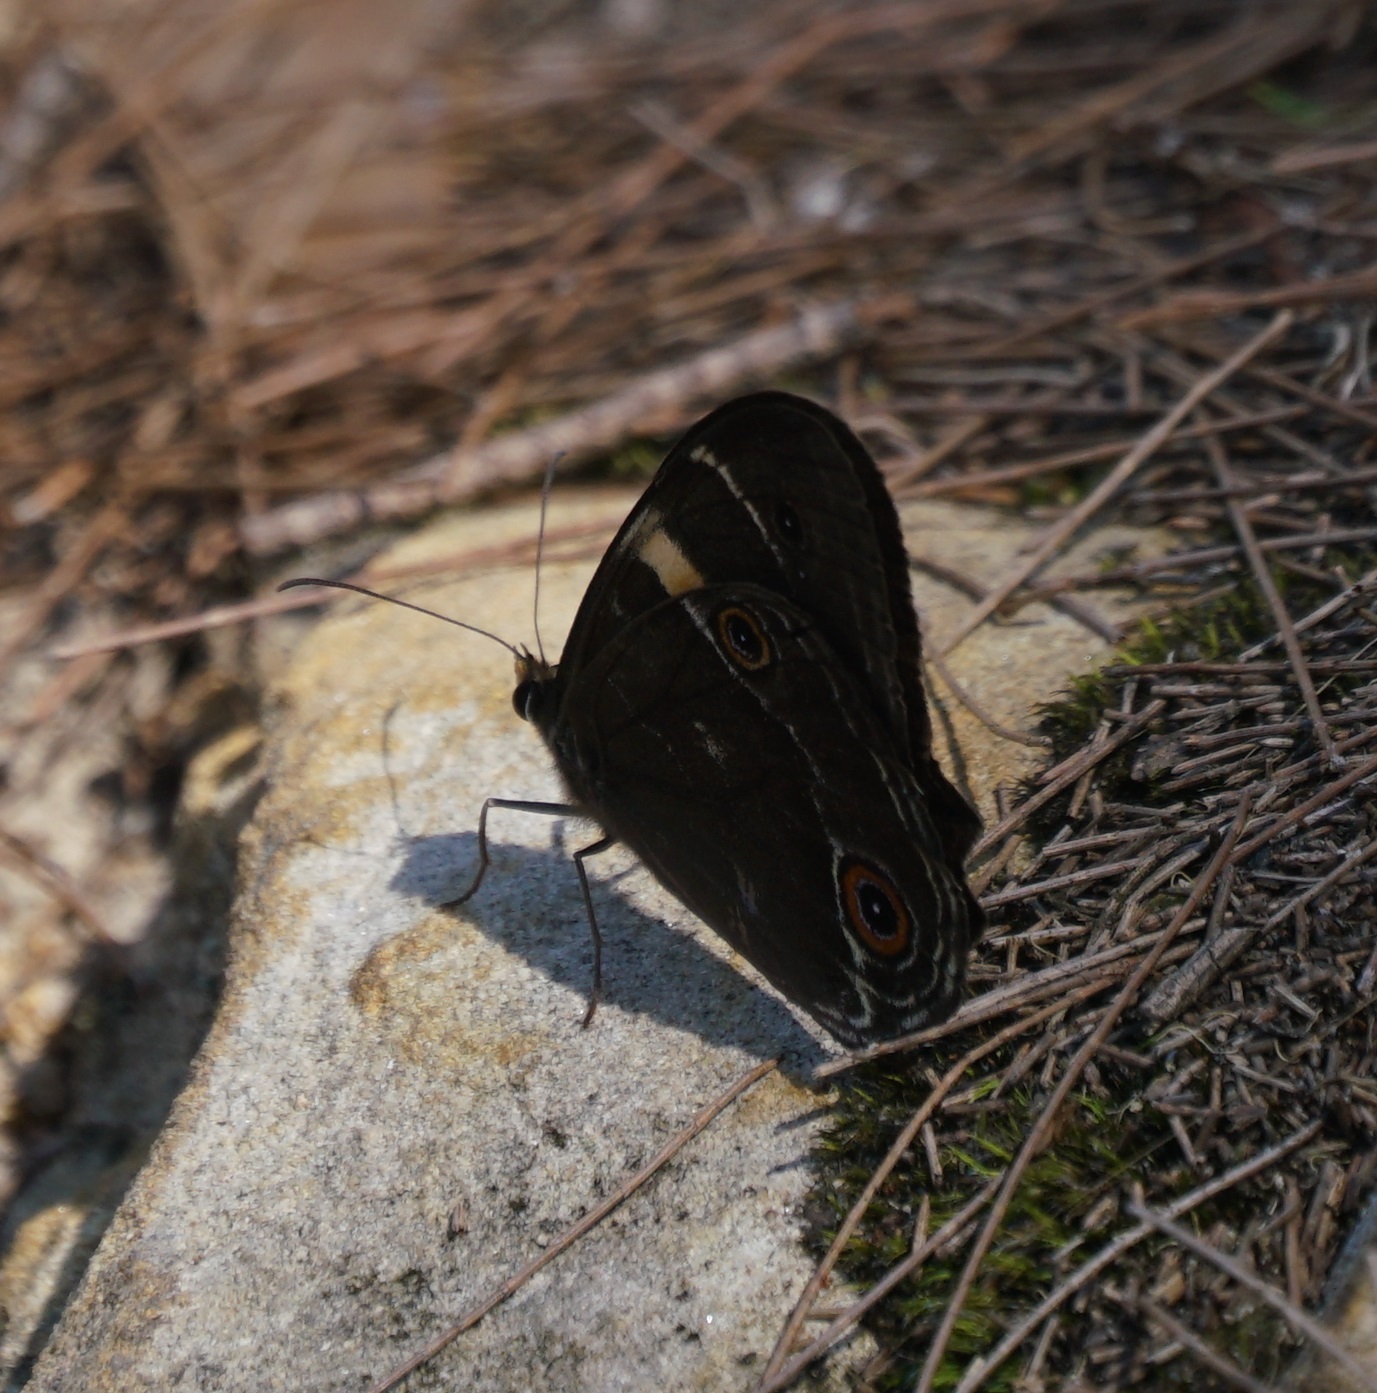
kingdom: Animalia
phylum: Arthropoda
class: Insecta
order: Lepidoptera
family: Nymphalidae
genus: Tisiphone
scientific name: Tisiphone abeona
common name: Swordgrass brown
